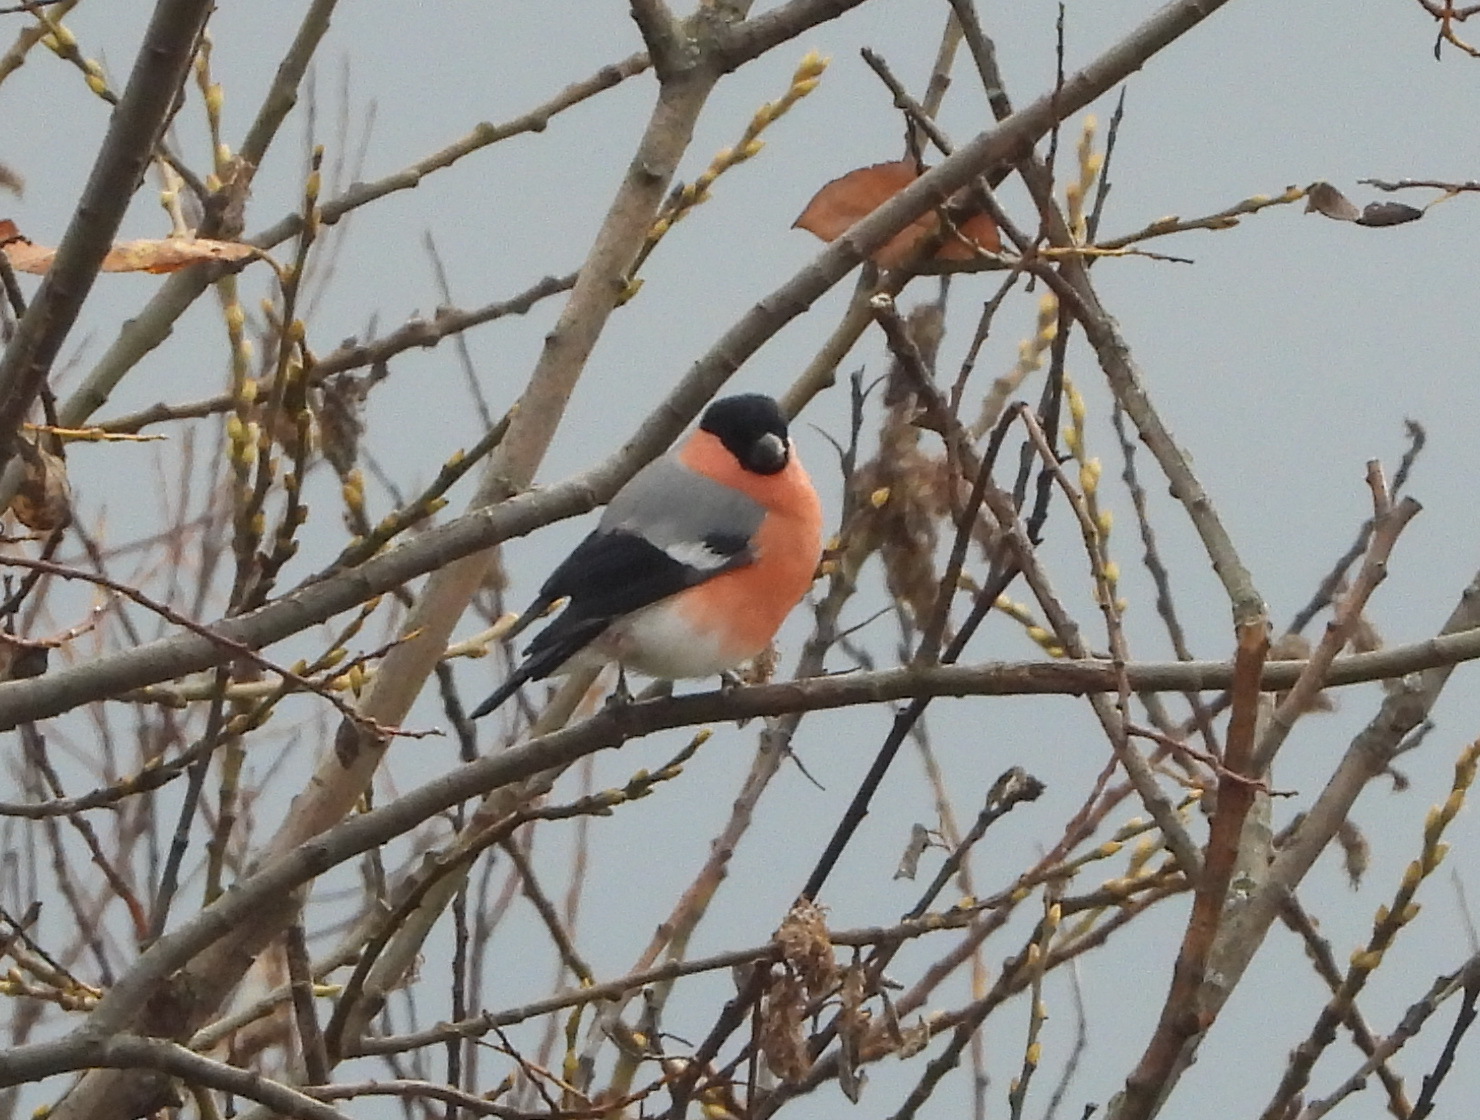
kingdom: Animalia
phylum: Chordata
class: Aves
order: Passeriformes
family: Fringillidae
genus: Pyrrhula
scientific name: Pyrrhula pyrrhula
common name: Eurasian bullfinch
